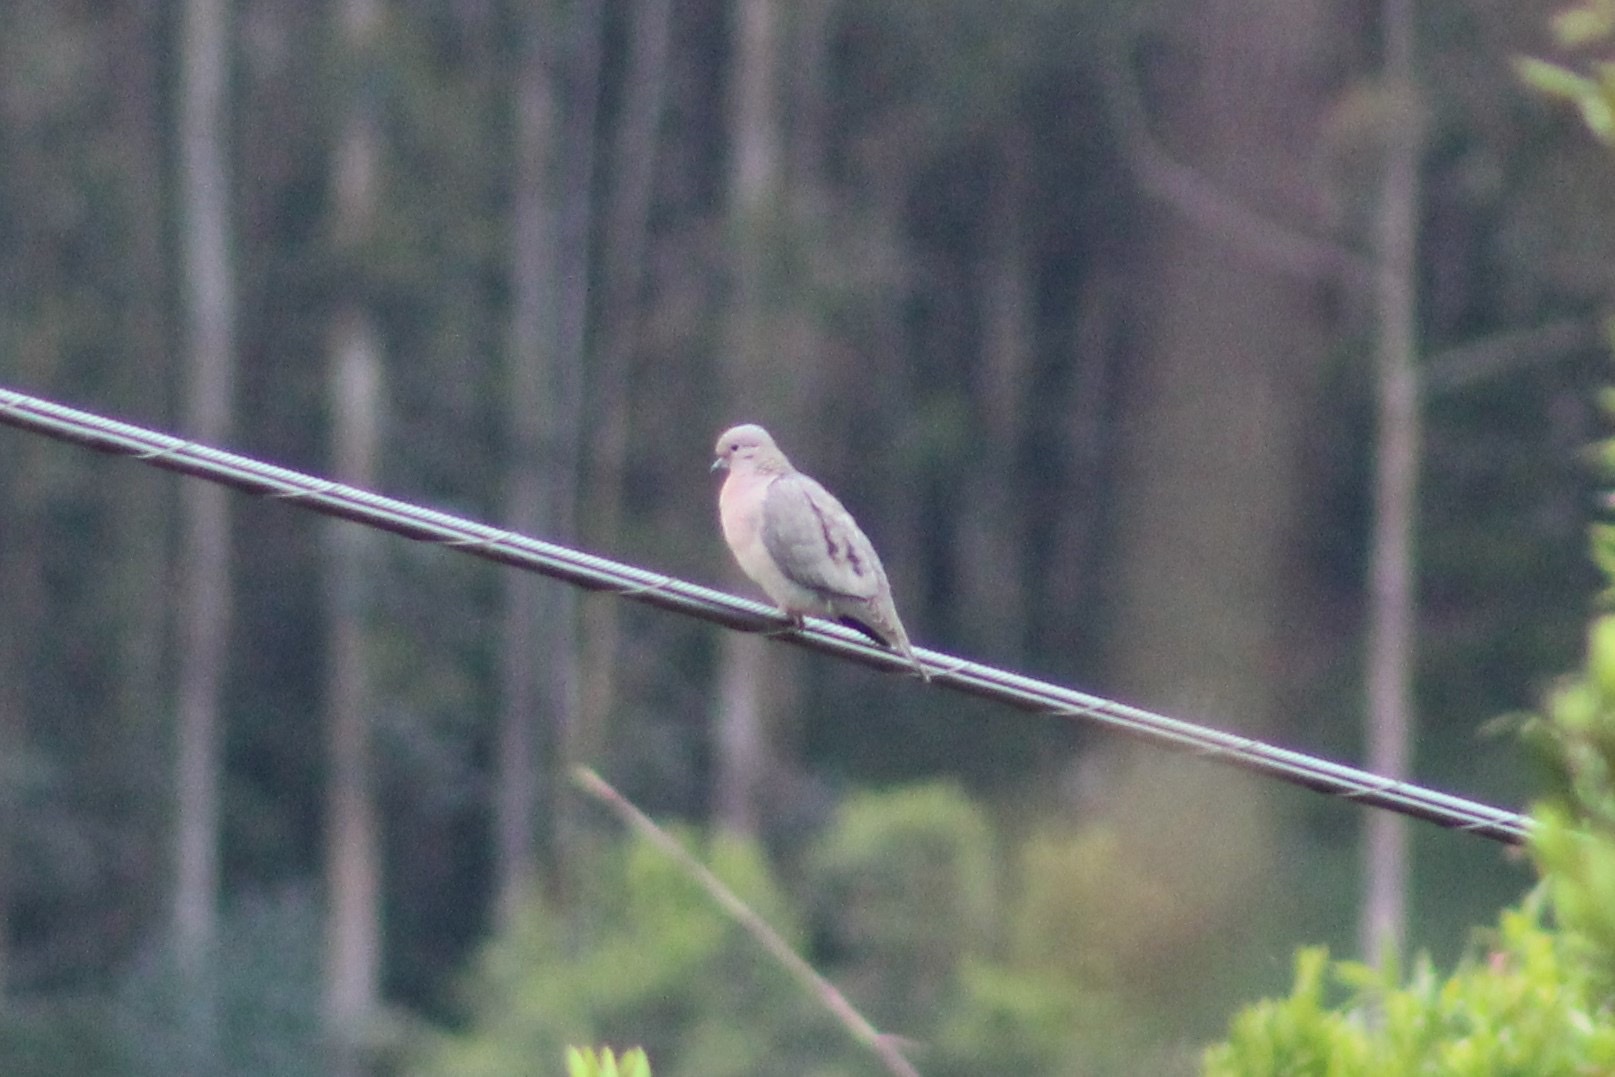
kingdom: Animalia
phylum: Chordata
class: Aves
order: Columbiformes
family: Columbidae
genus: Zenaida
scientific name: Zenaida auriculata
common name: Eared dove
